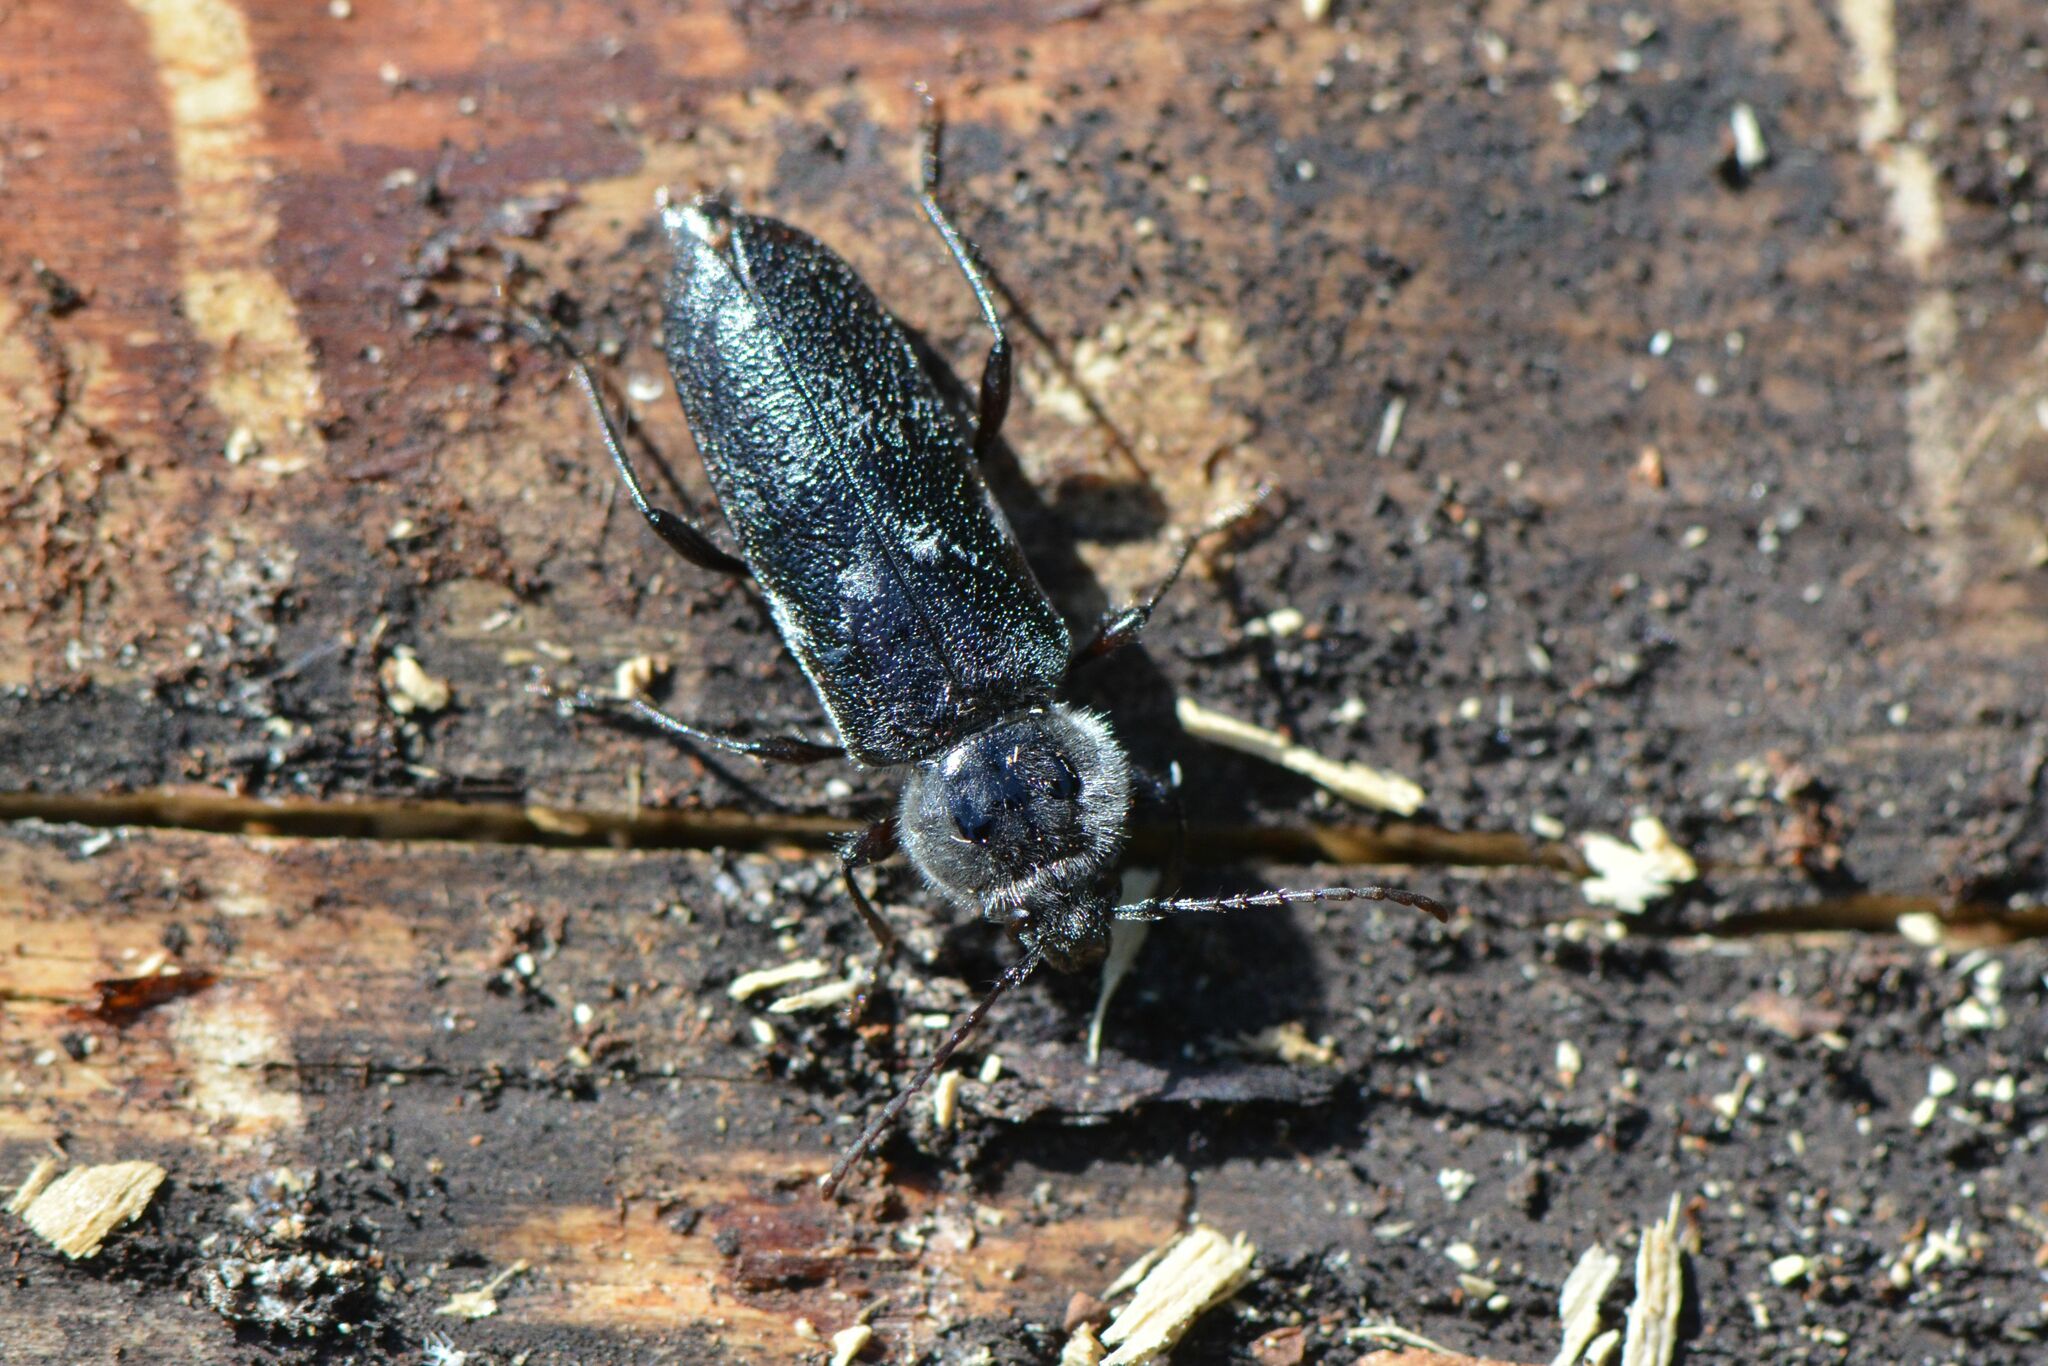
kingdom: Animalia
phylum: Arthropoda
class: Insecta
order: Coleoptera
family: Cerambycidae
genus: Hylotrupes
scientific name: Hylotrupes bajulus
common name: Old house borer
